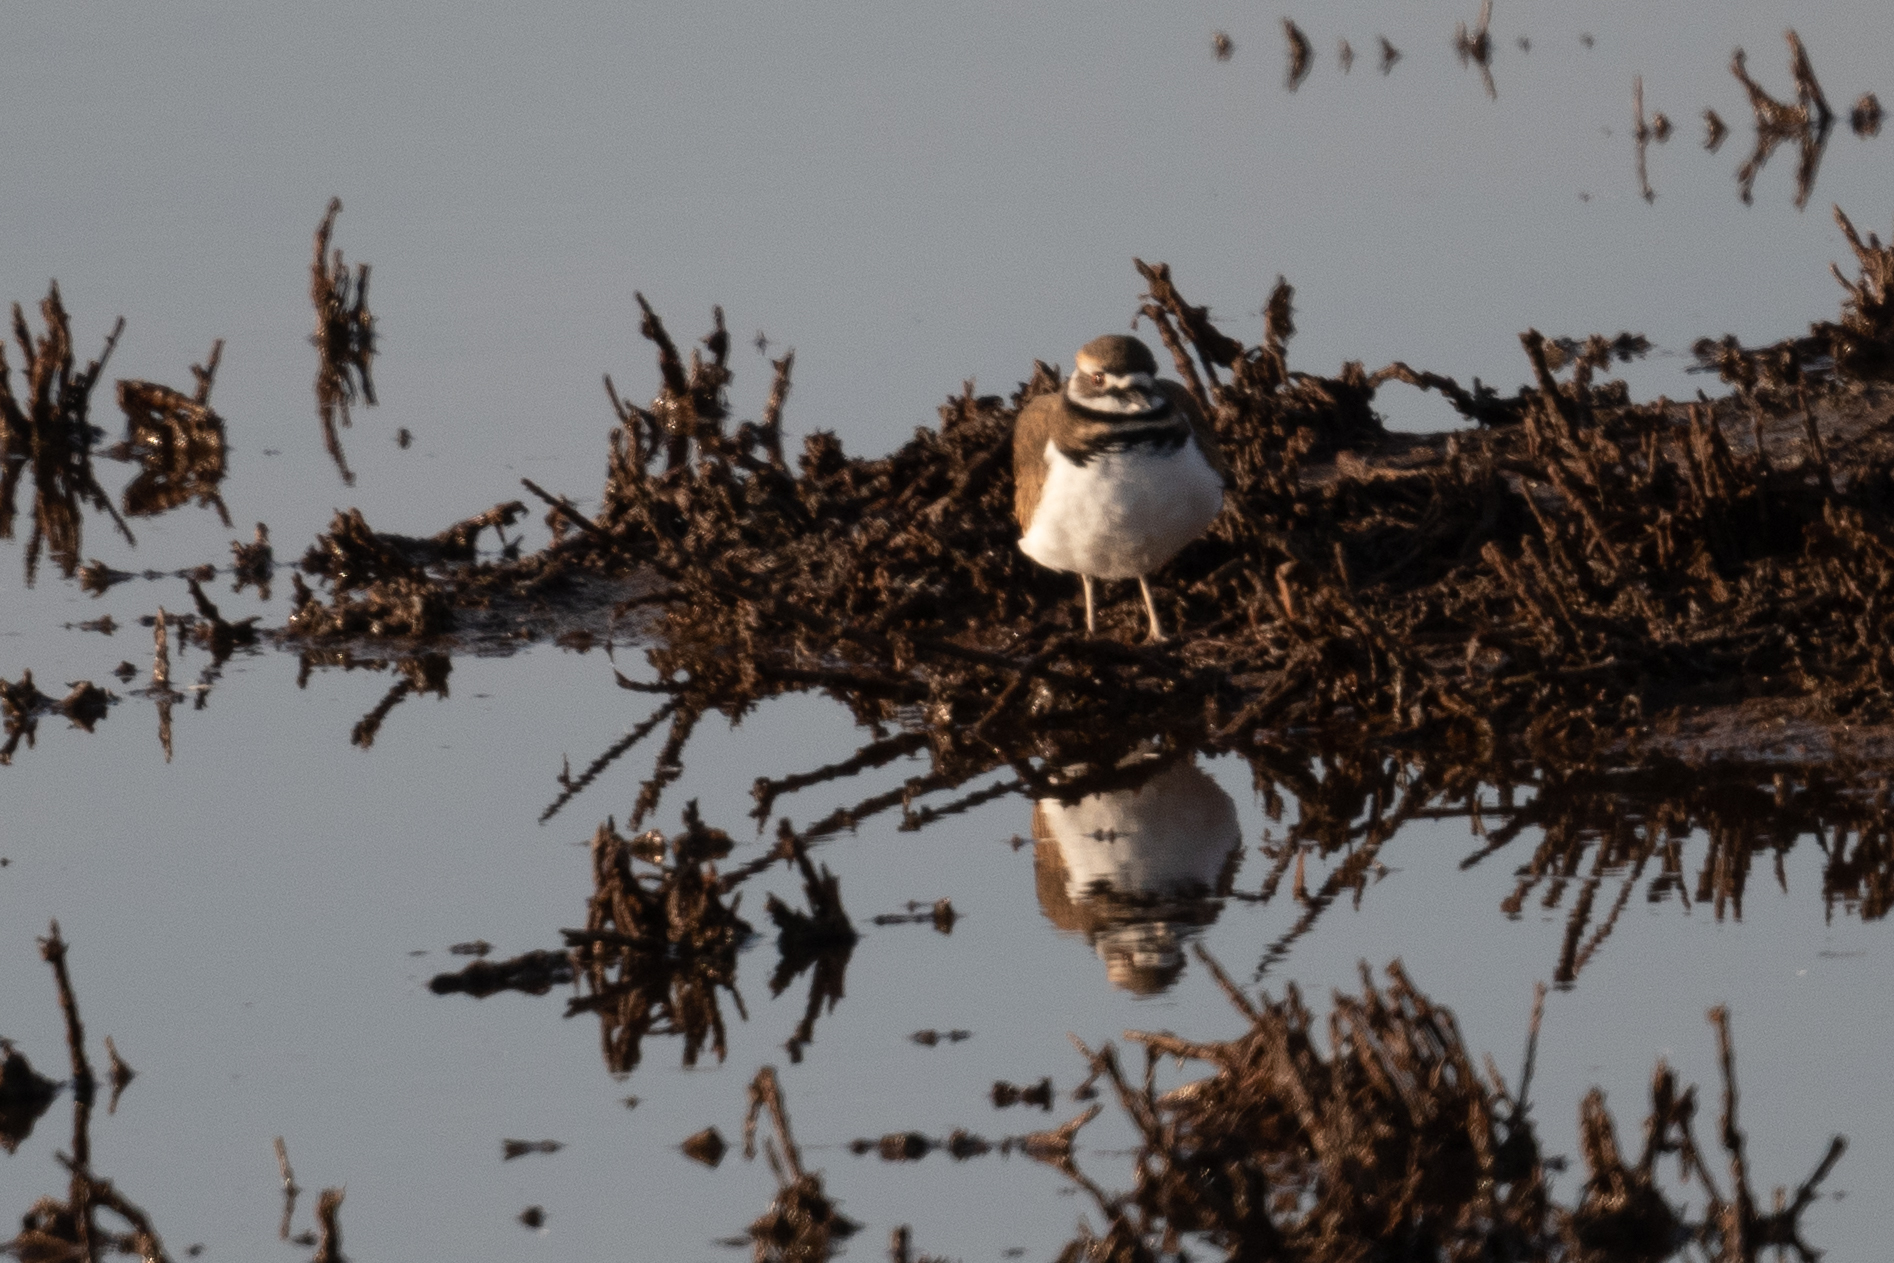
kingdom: Animalia
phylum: Chordata
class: Aves
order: Charadriiformes
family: Charadriidae
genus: Charadrius
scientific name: Charadrius vociferus
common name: Killdeer
